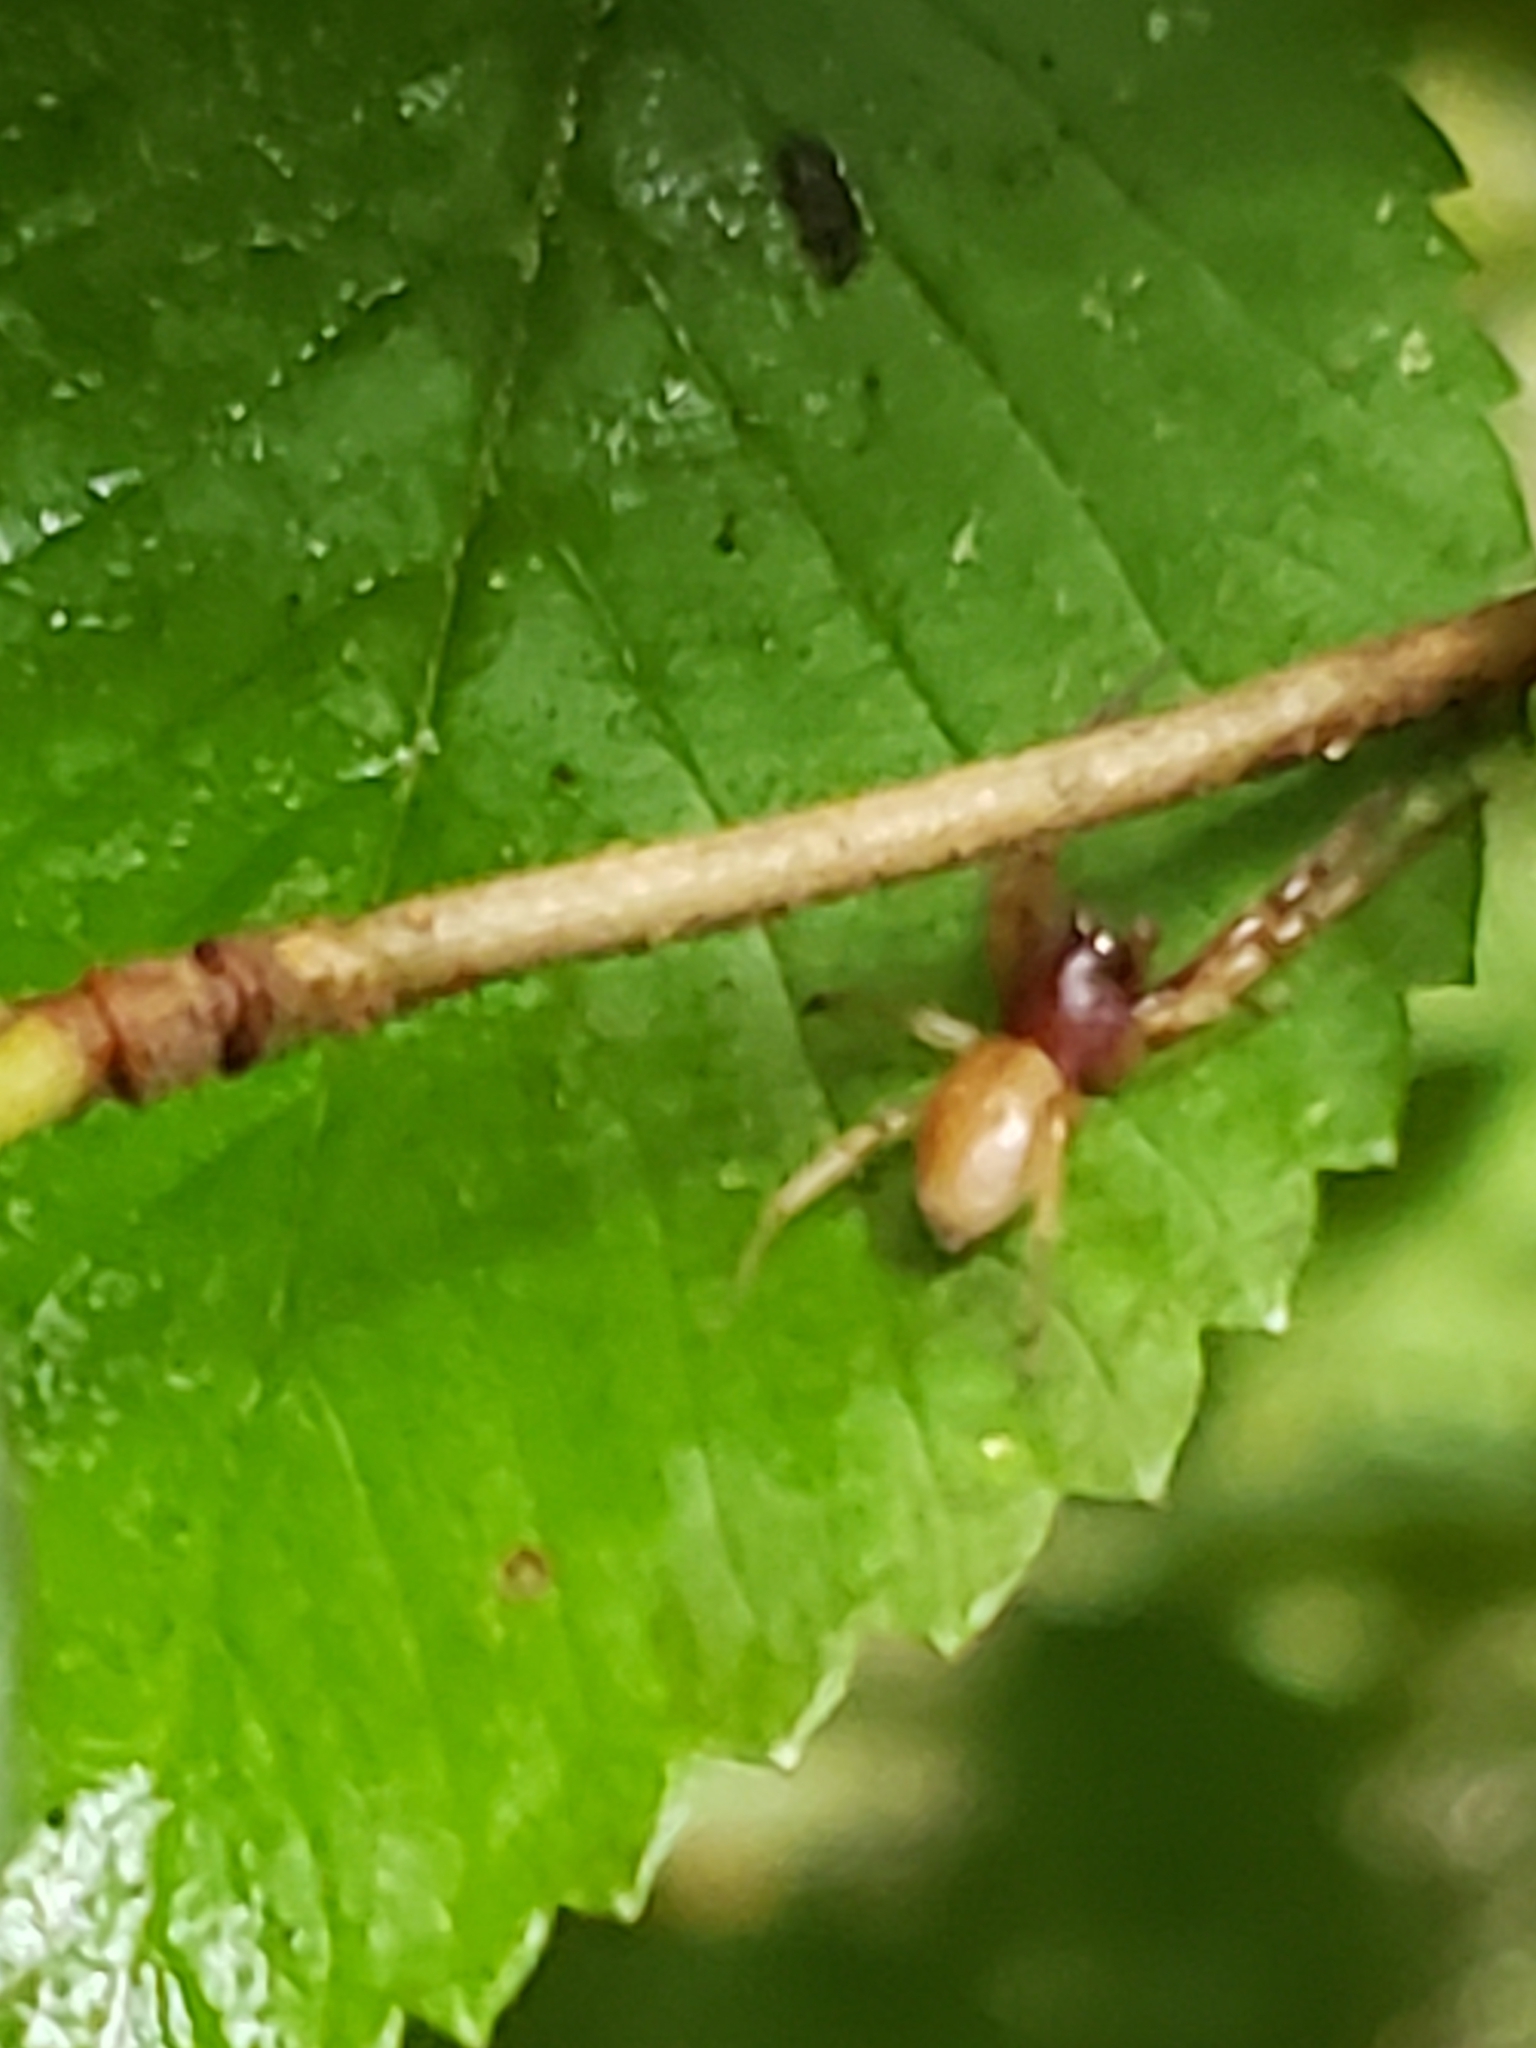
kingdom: Animalia
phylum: Arthropoda
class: Arachnida
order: Araneae
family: Trachelidae
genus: Trachelas
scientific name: Trachelas tranquillus
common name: Broad-faced sac spider
